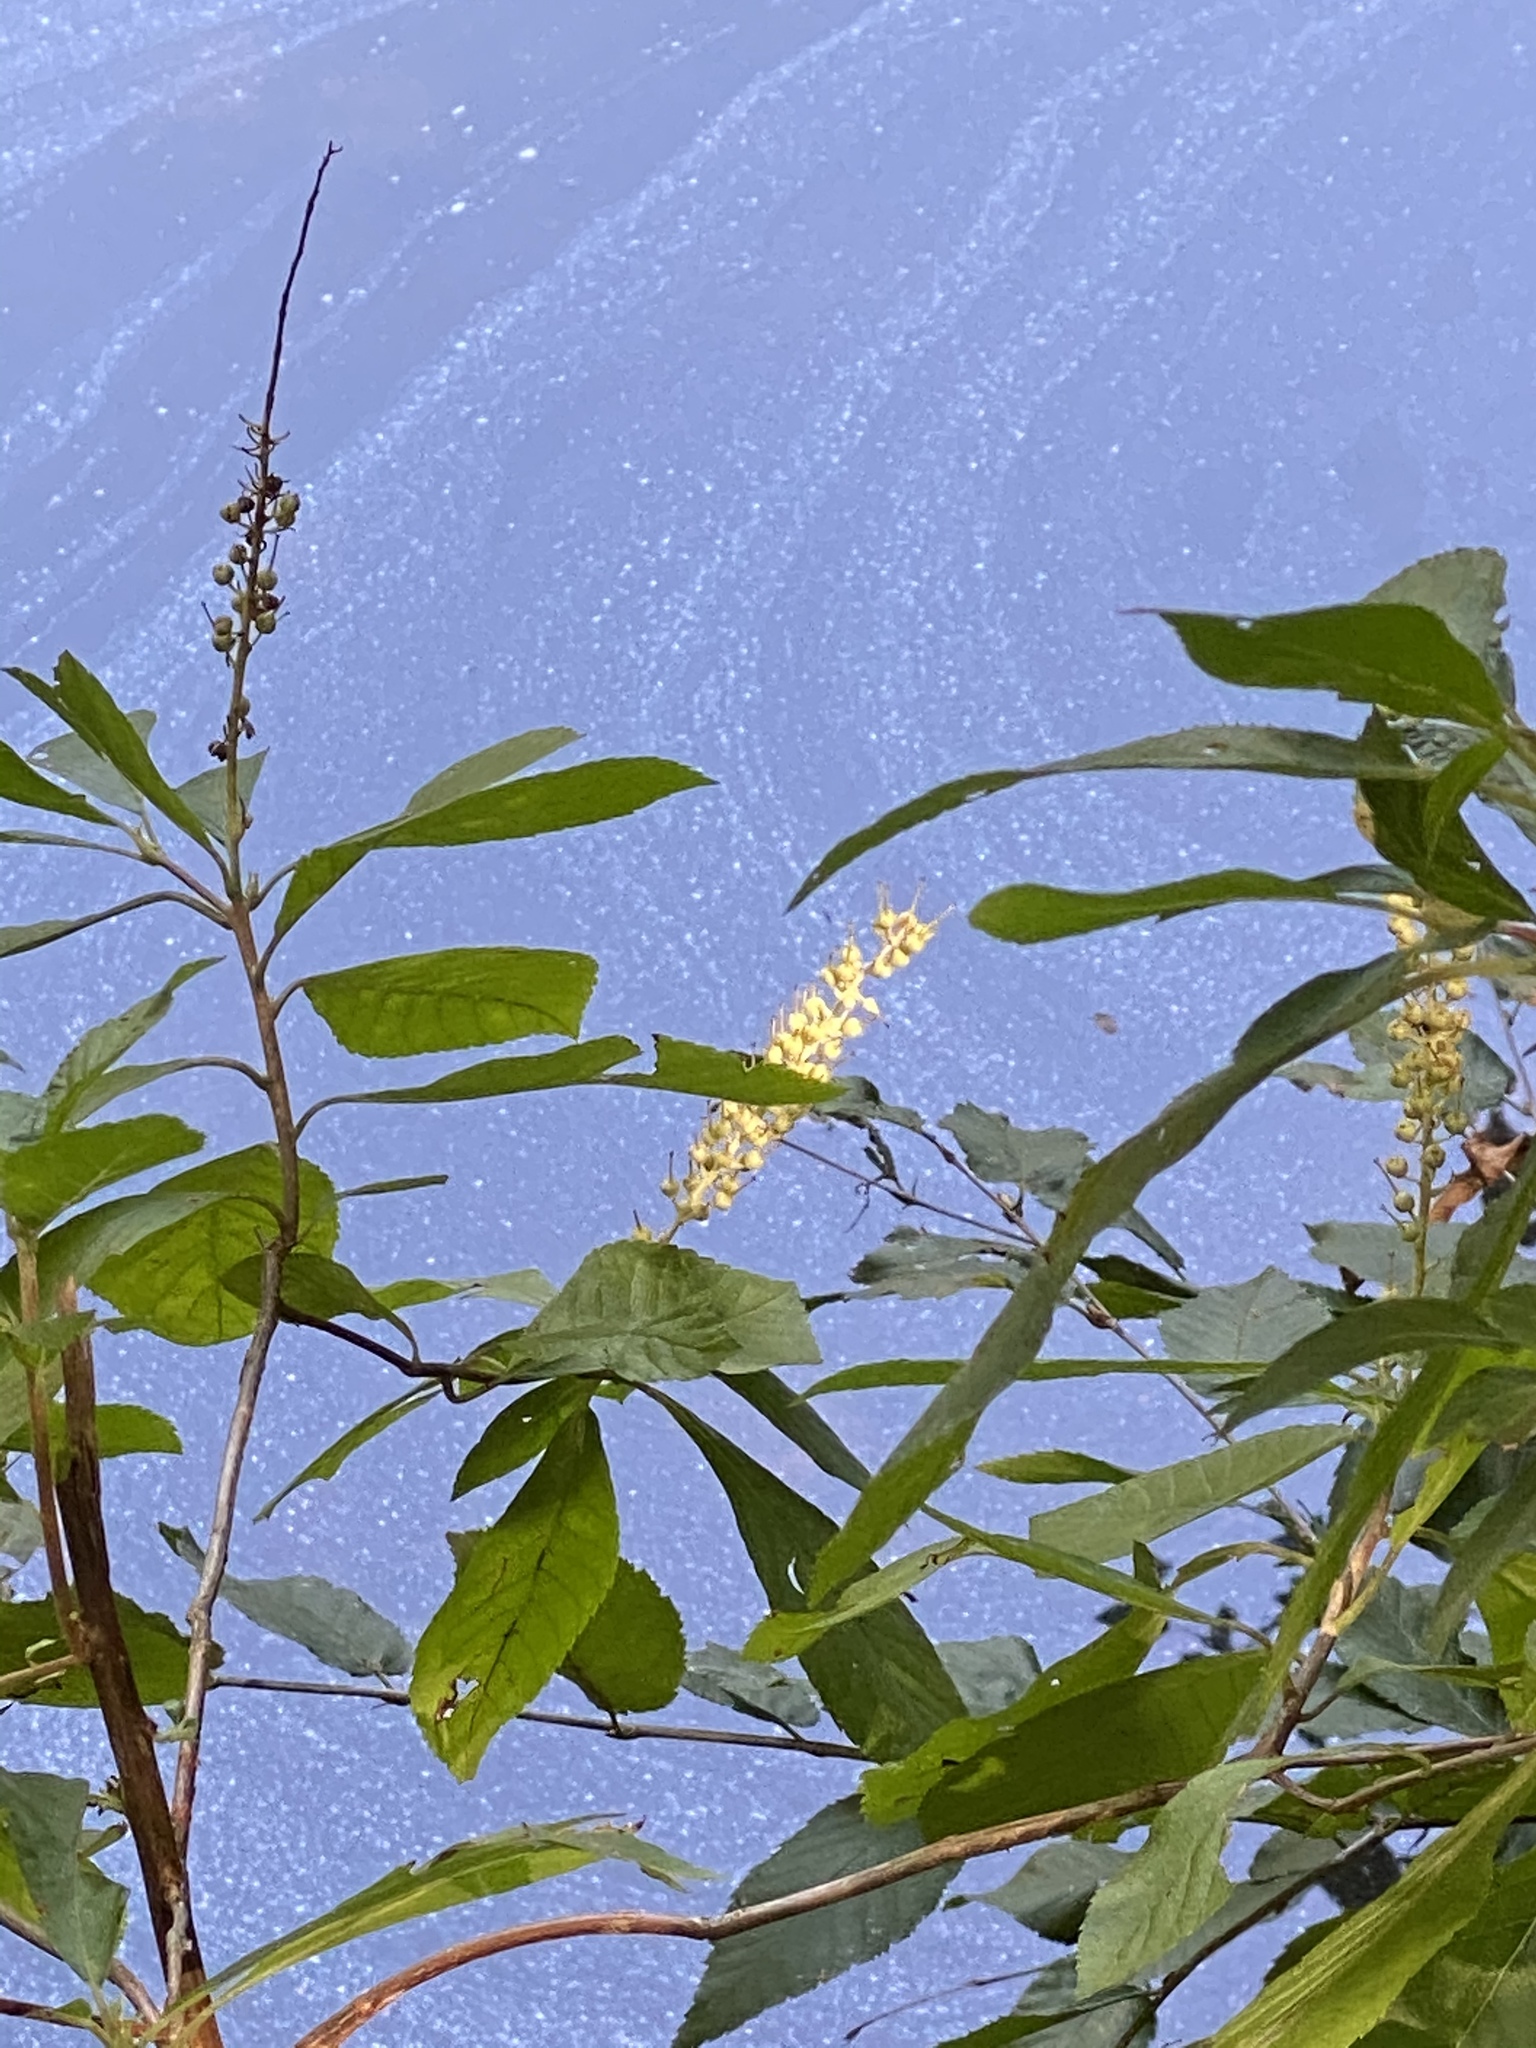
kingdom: Plantae
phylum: Tracheophyta
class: Magnoliopsida
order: Ericales
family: Clethraceae
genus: Clethra
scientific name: Clethra alnifolia
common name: Sweet pepperbush
